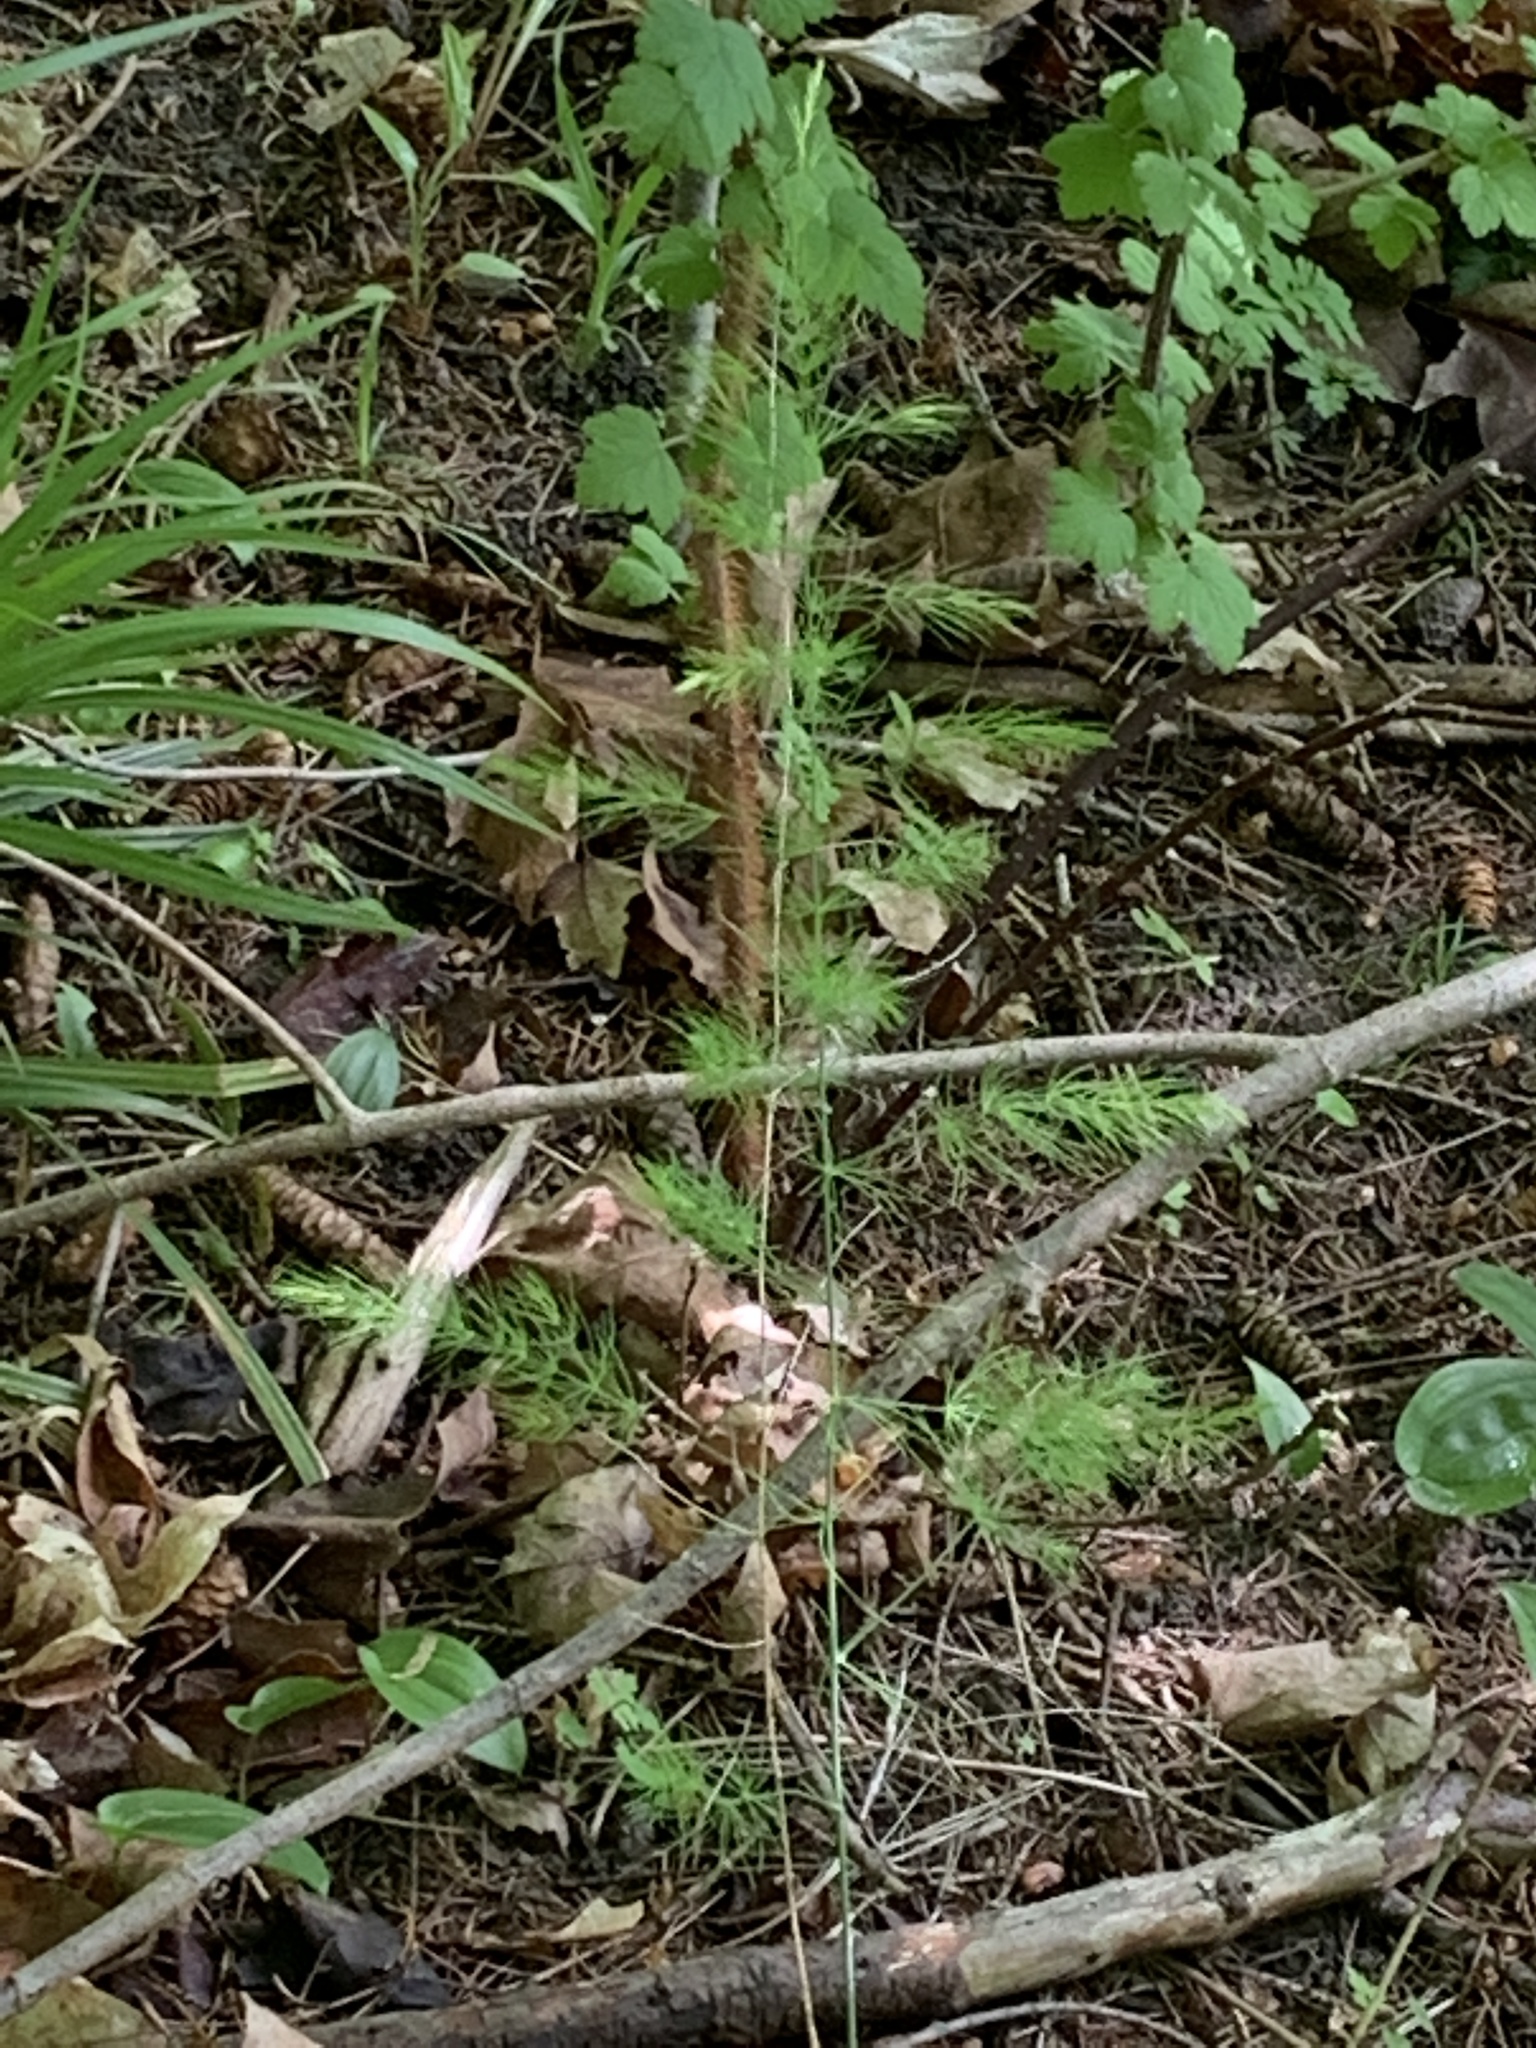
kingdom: Plantae
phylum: Tracheophyta
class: Liliopsida
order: Asparagales
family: Asparagaceae
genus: Asparagus
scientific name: Asparagus officinalis
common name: Garden asparagus
